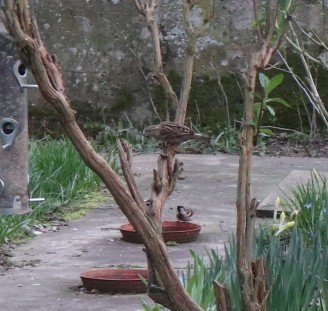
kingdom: Animalia
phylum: Chordata
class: Aves
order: Passeriformes
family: Passeridae
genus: Passer
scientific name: Passer domesticus
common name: House sparrow
